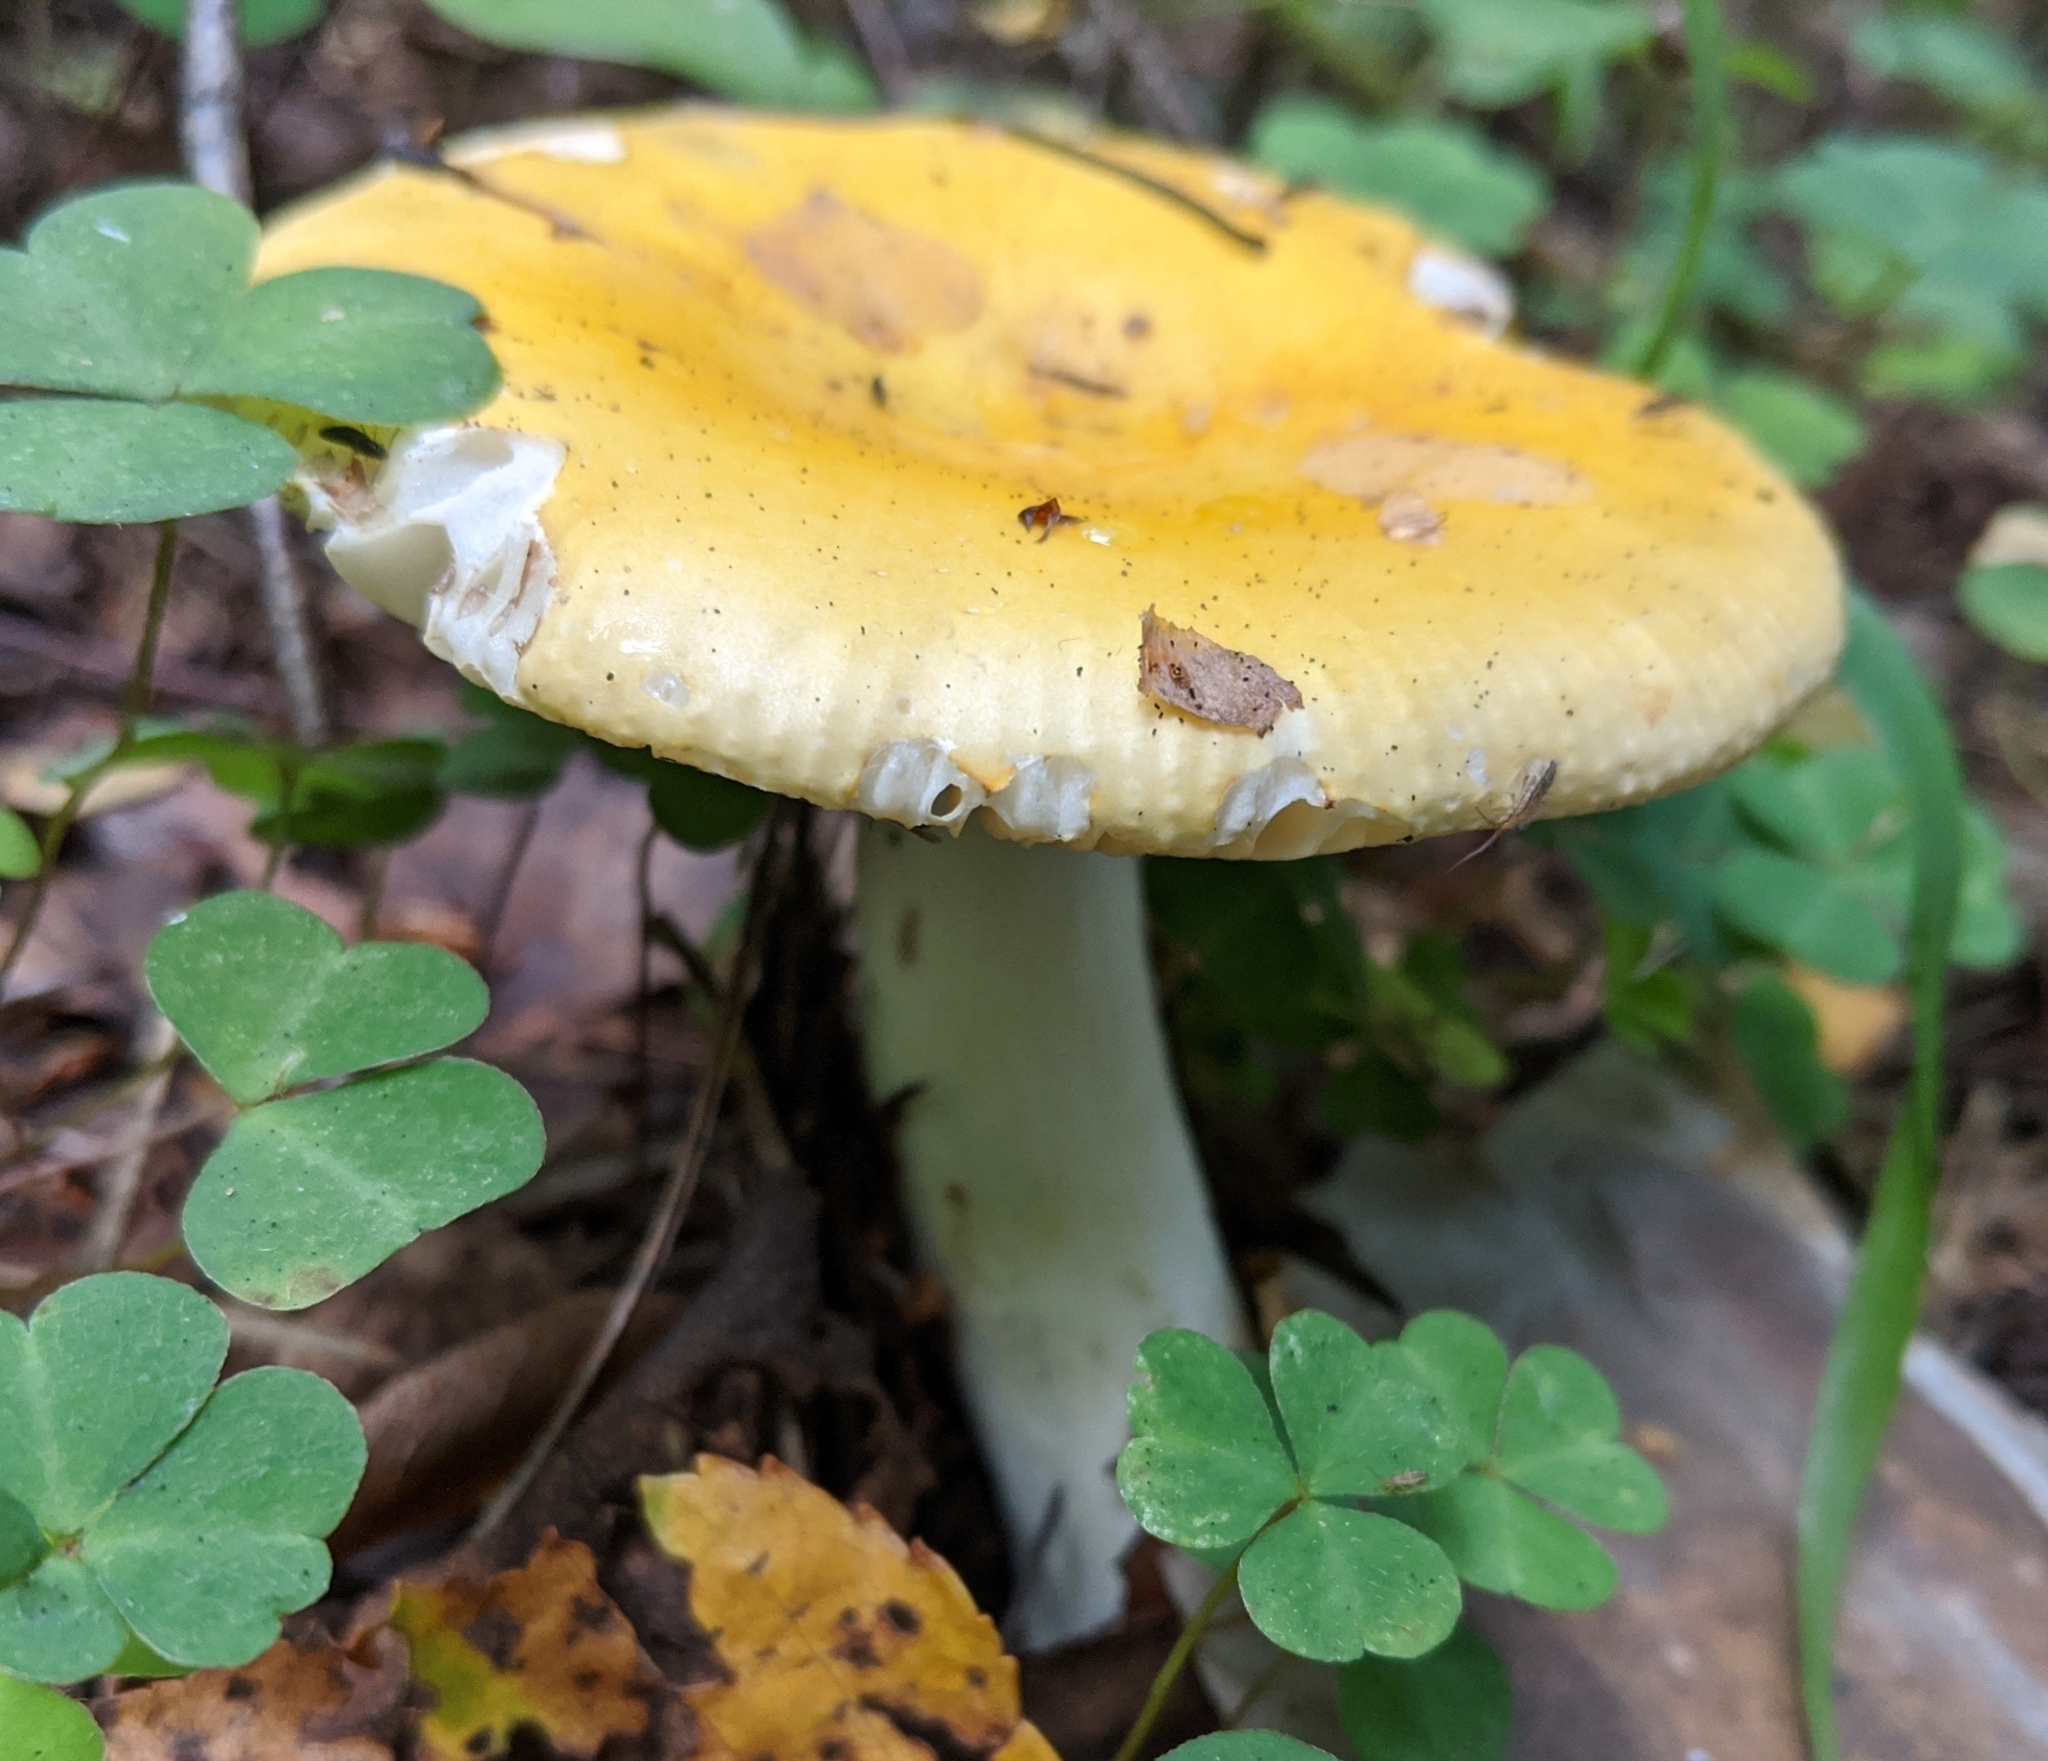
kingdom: Fungi
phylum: Basidiomycota
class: Agaricomycetes
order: Russulales
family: Russulaceae
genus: Russula
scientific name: Russula claroflava
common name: The yellow swamp brittlegill
